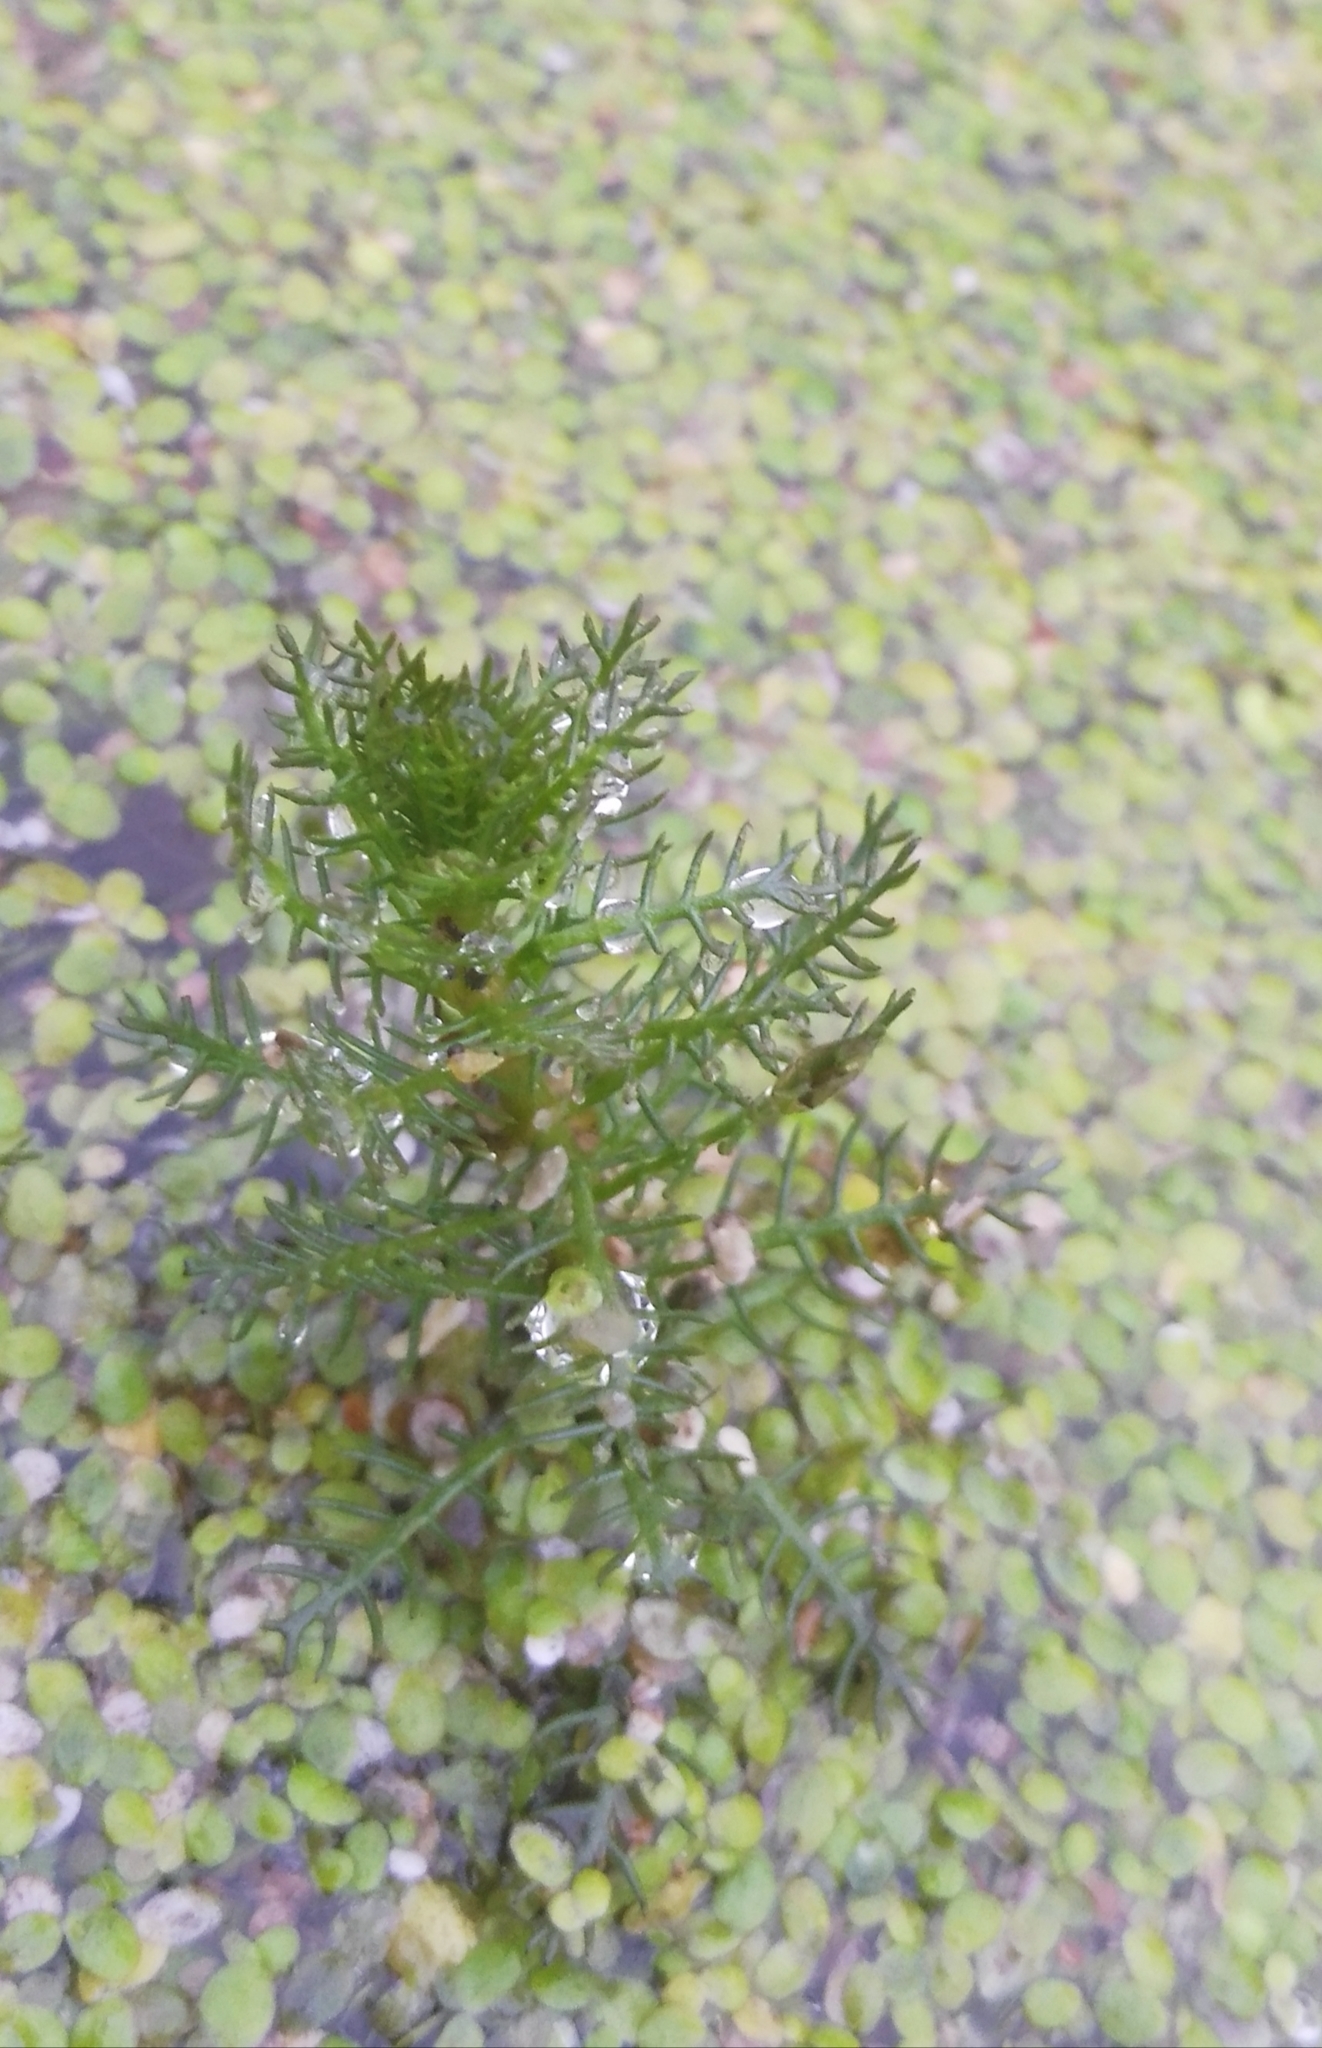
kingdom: Plantae
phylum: Tracheophyta
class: Magnoliopsida
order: Saxifragales
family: Haloragaceae
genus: Myriophyllum
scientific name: Myriophyllum verticillatum
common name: Whorled water-milfoil
